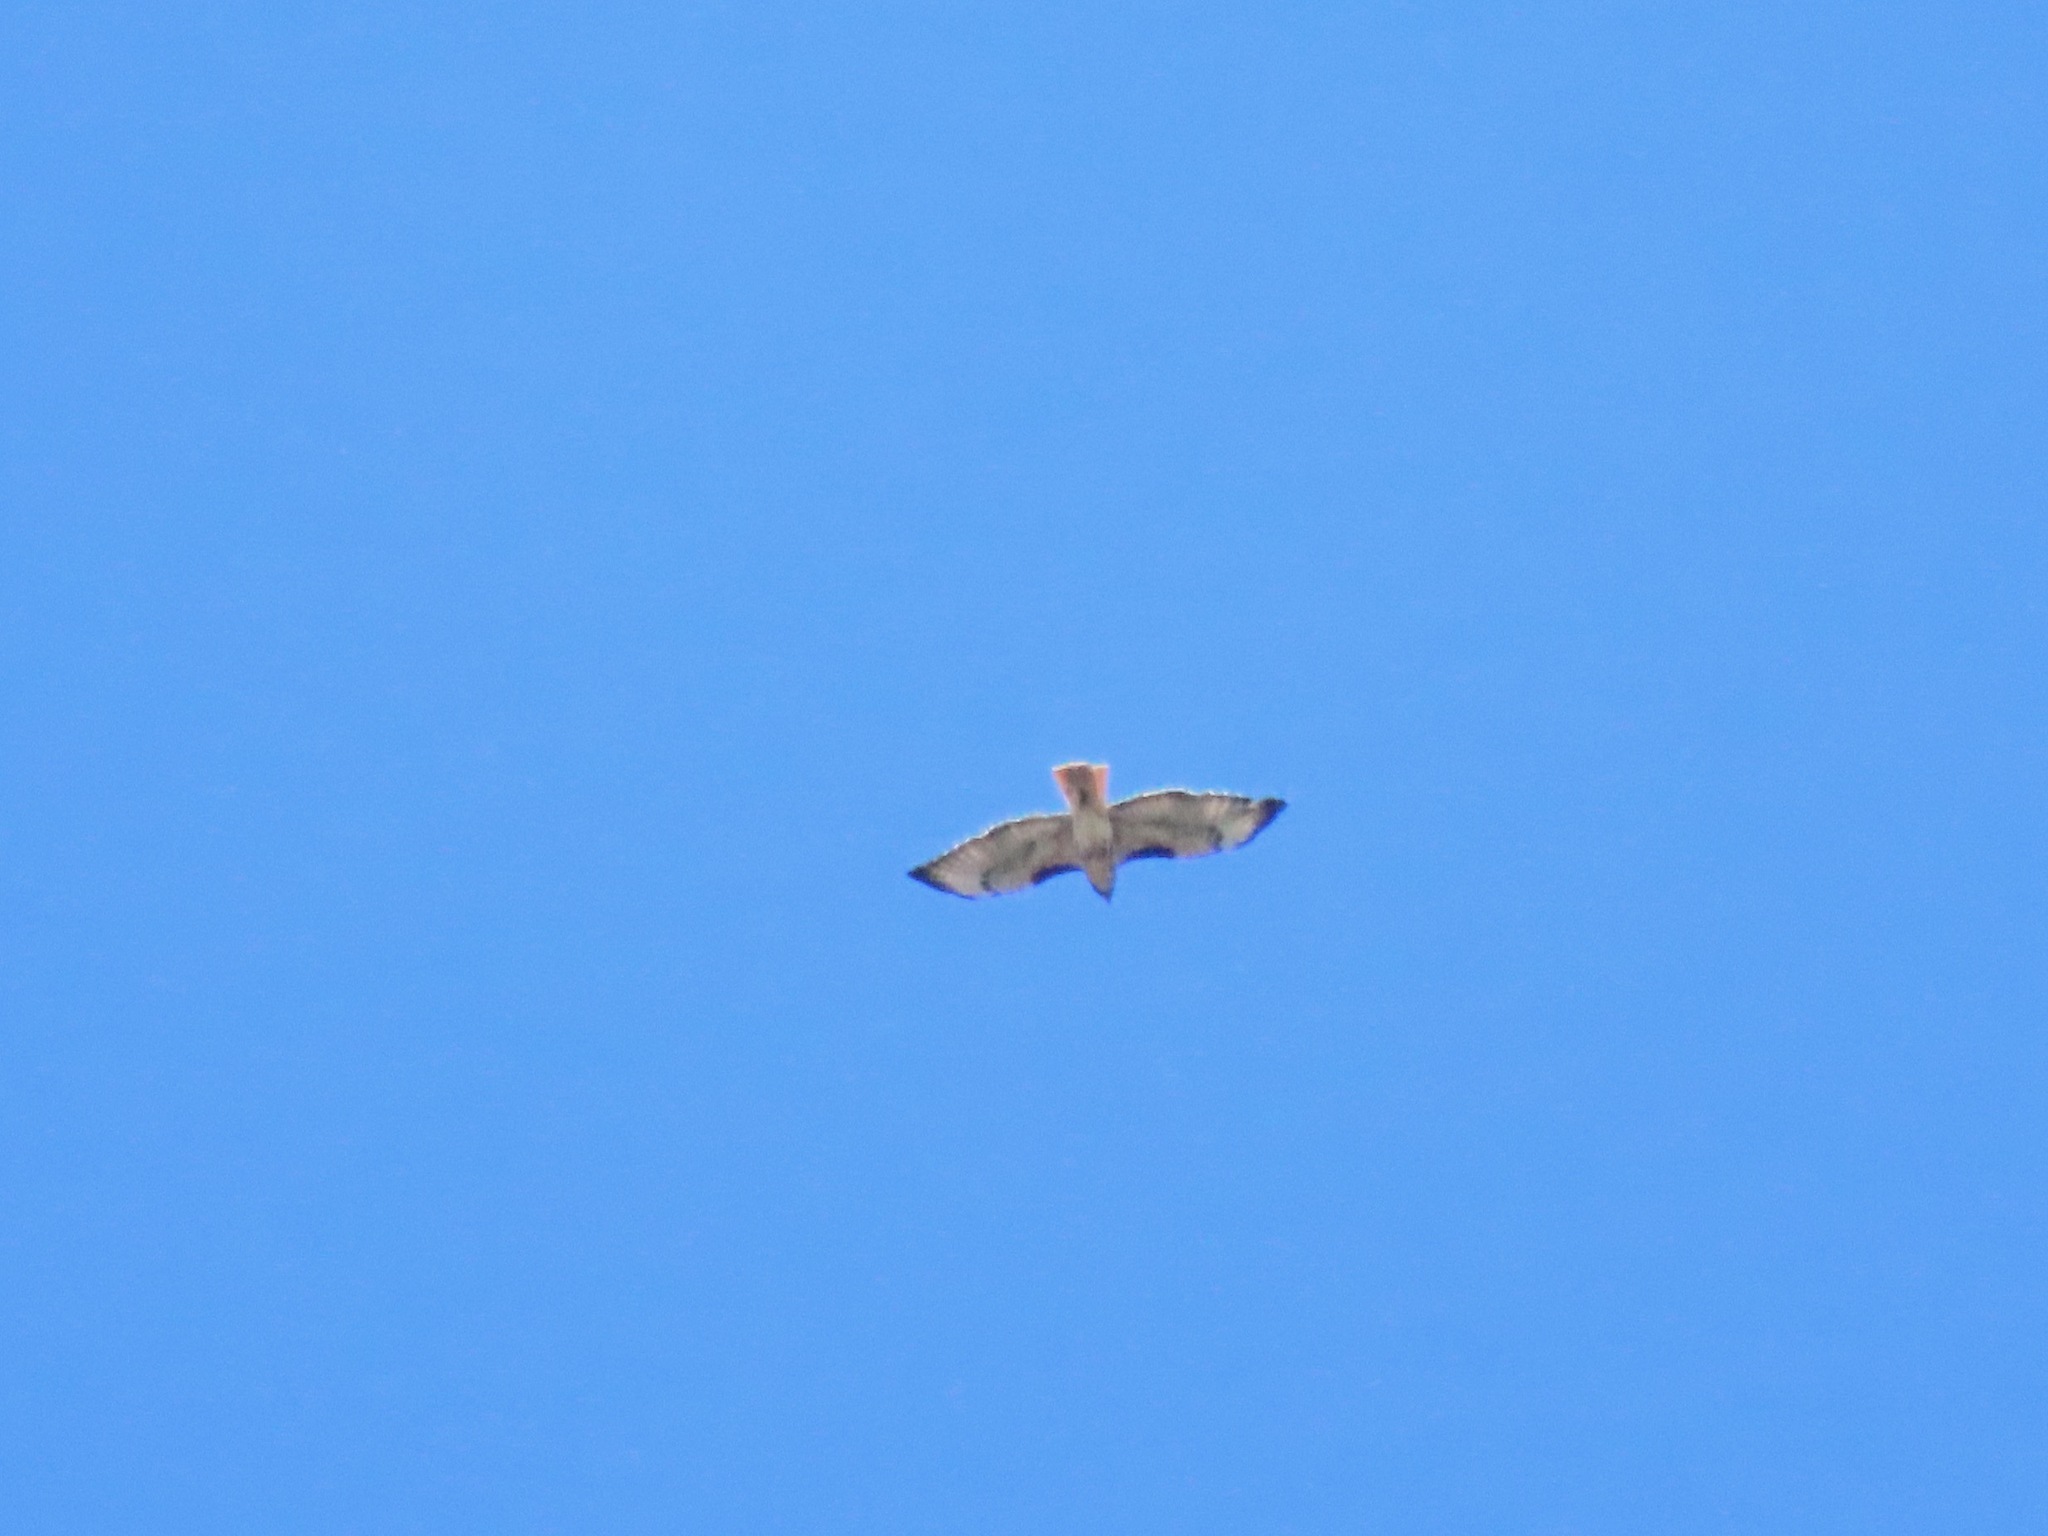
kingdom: Animalia
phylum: Chordata
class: Aves
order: Accipitriformes
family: Accipitridae
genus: Buteo
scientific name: Buteo jamaicensis
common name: Red-tailed hawk
